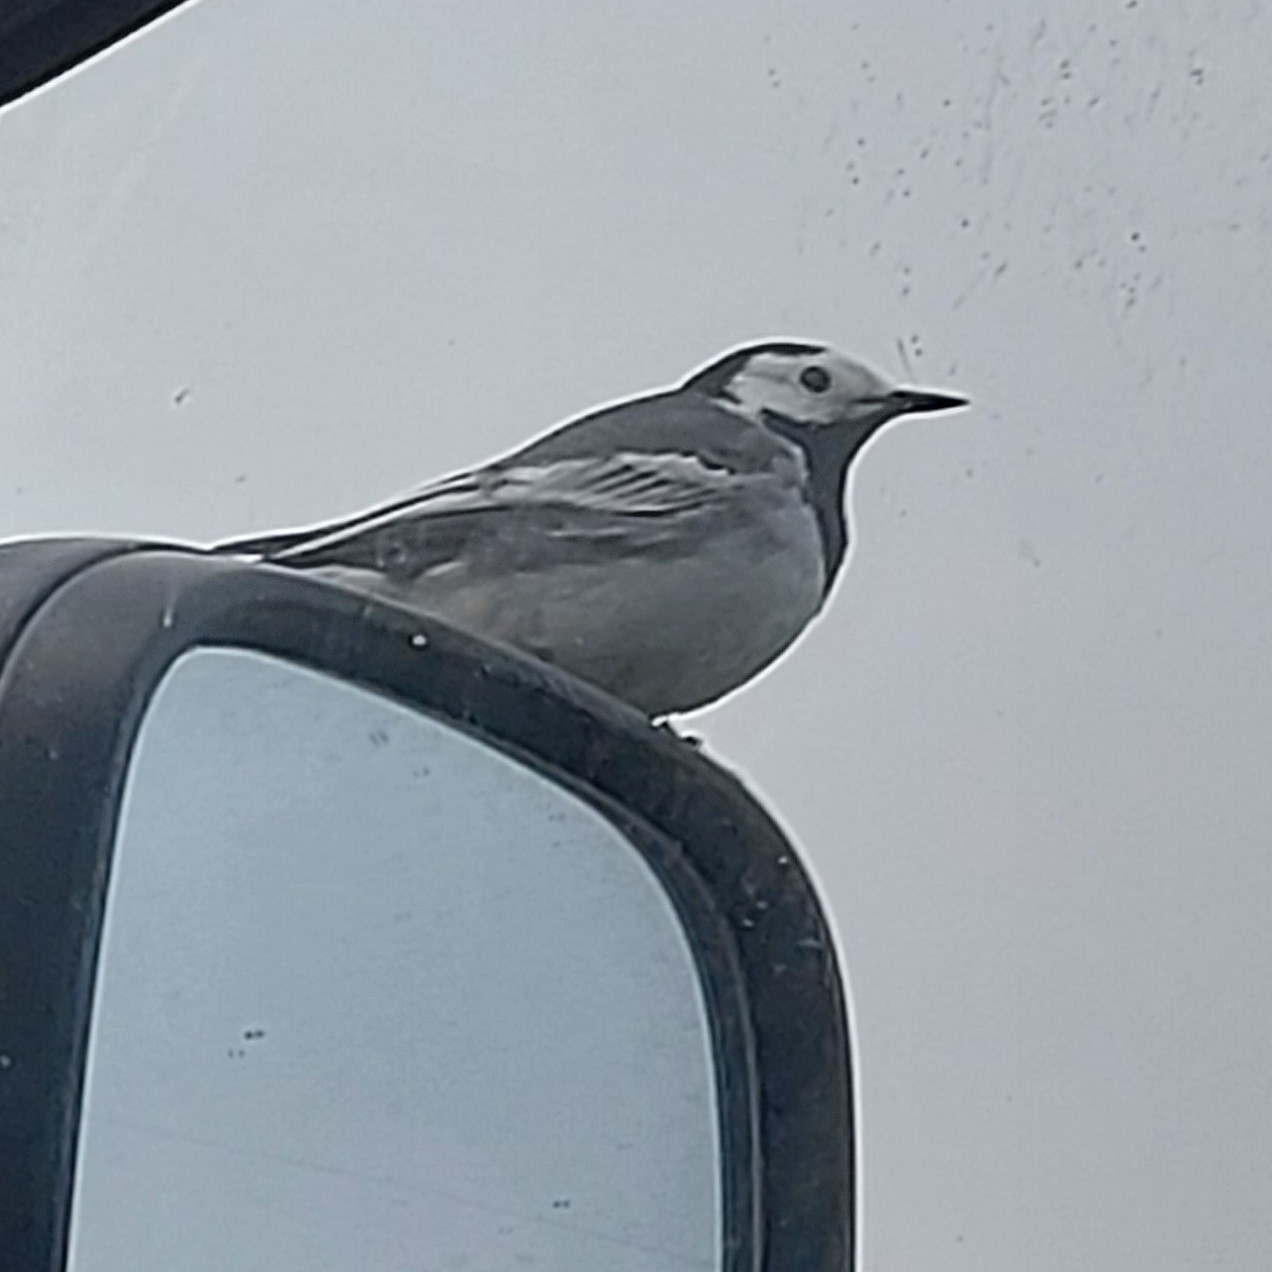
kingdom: Animalia
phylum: Chordata
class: Aves
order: Passeriformes
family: Motacillidae
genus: Motacilla
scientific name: Motacilla alba
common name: White wagtail
